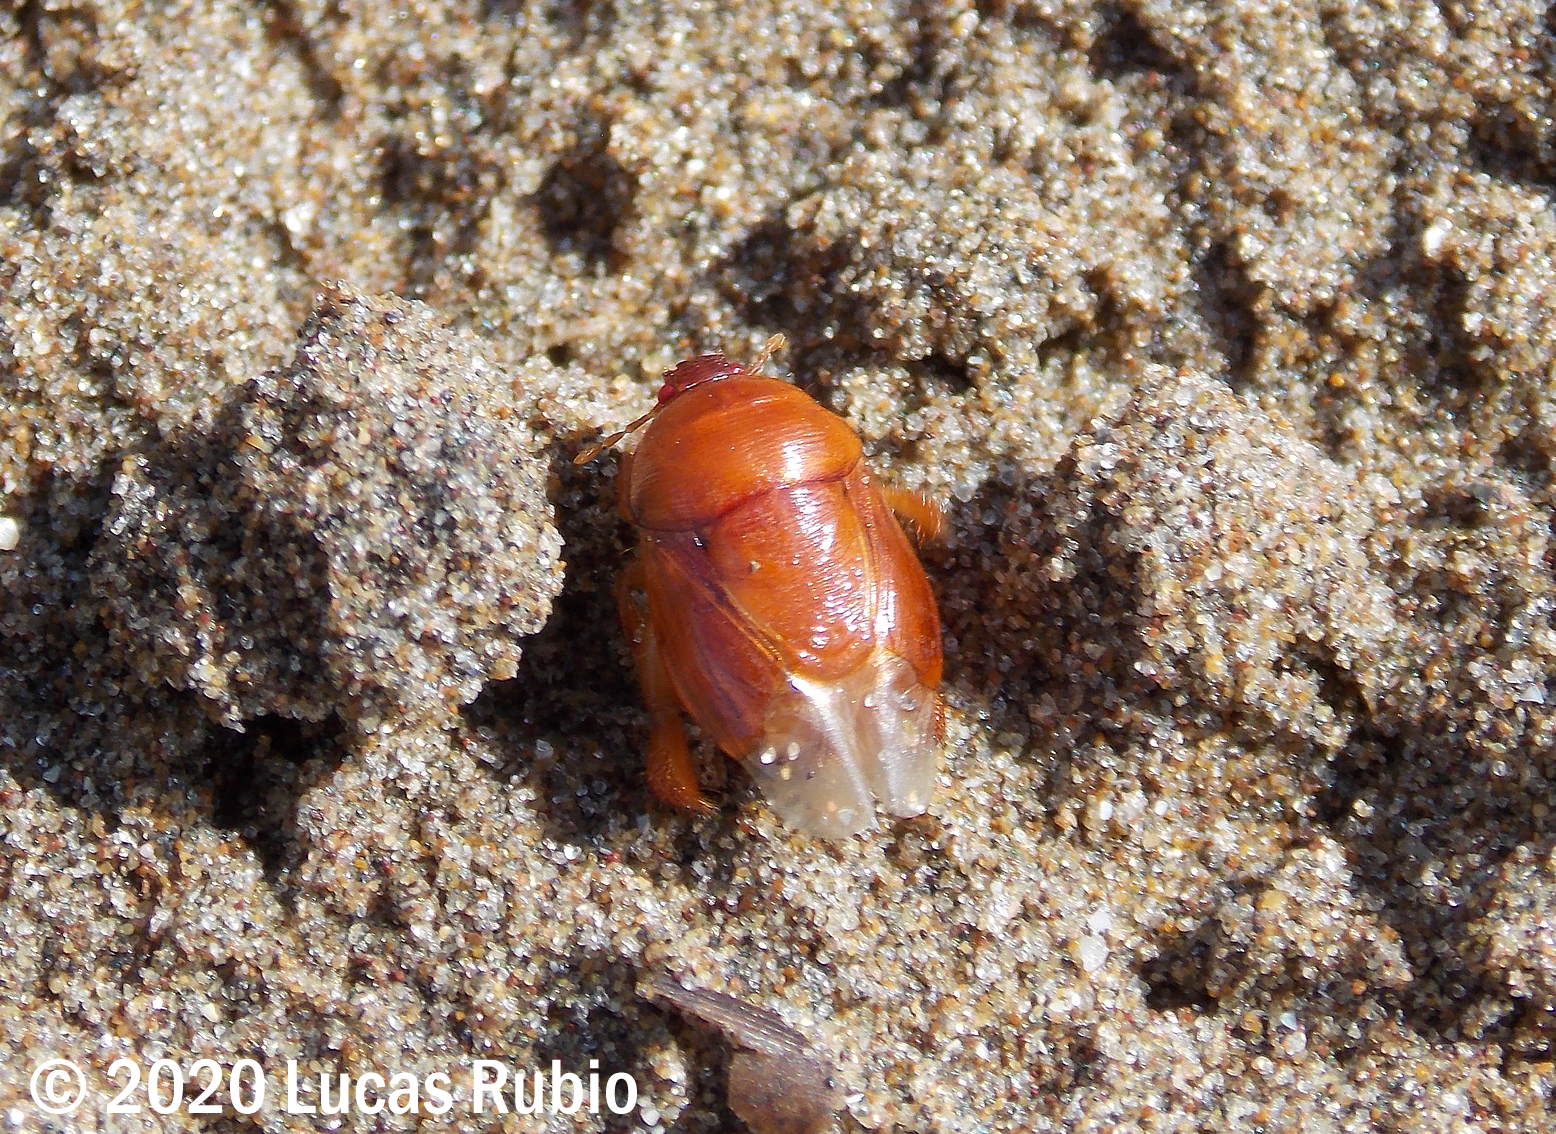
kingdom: Animalia
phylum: Arthropoda
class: Insecta
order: Hemiptera
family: Cydnidae
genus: Scaptocoris
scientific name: Scaptocoris castaneus
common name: Burrower bug
